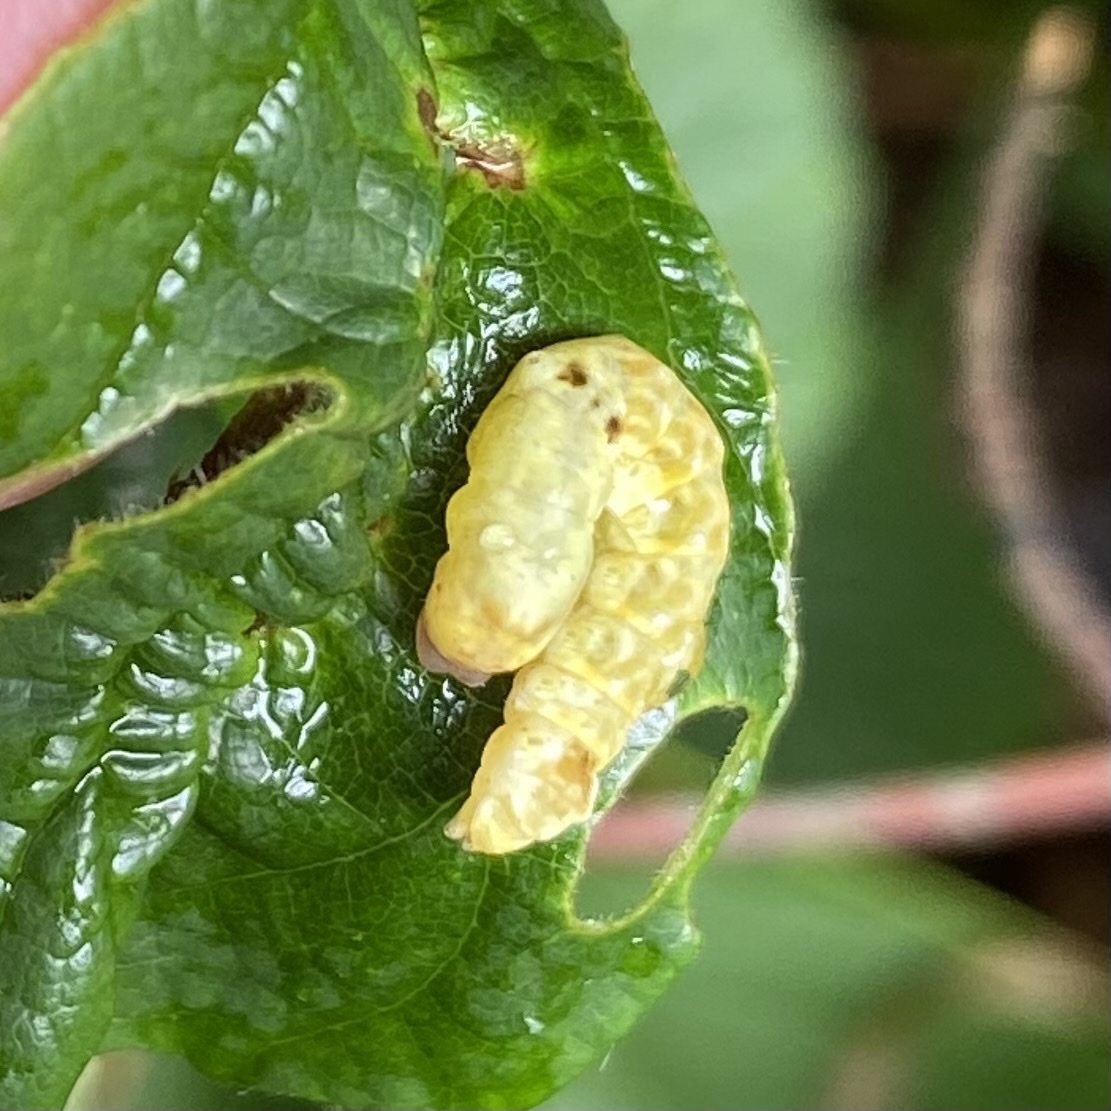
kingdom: Animalia
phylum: Arthropoda
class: Insecta
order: Lepidoptera
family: Drepanidae
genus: Thyatira
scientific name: Thyatira batis
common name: Peach blossom
